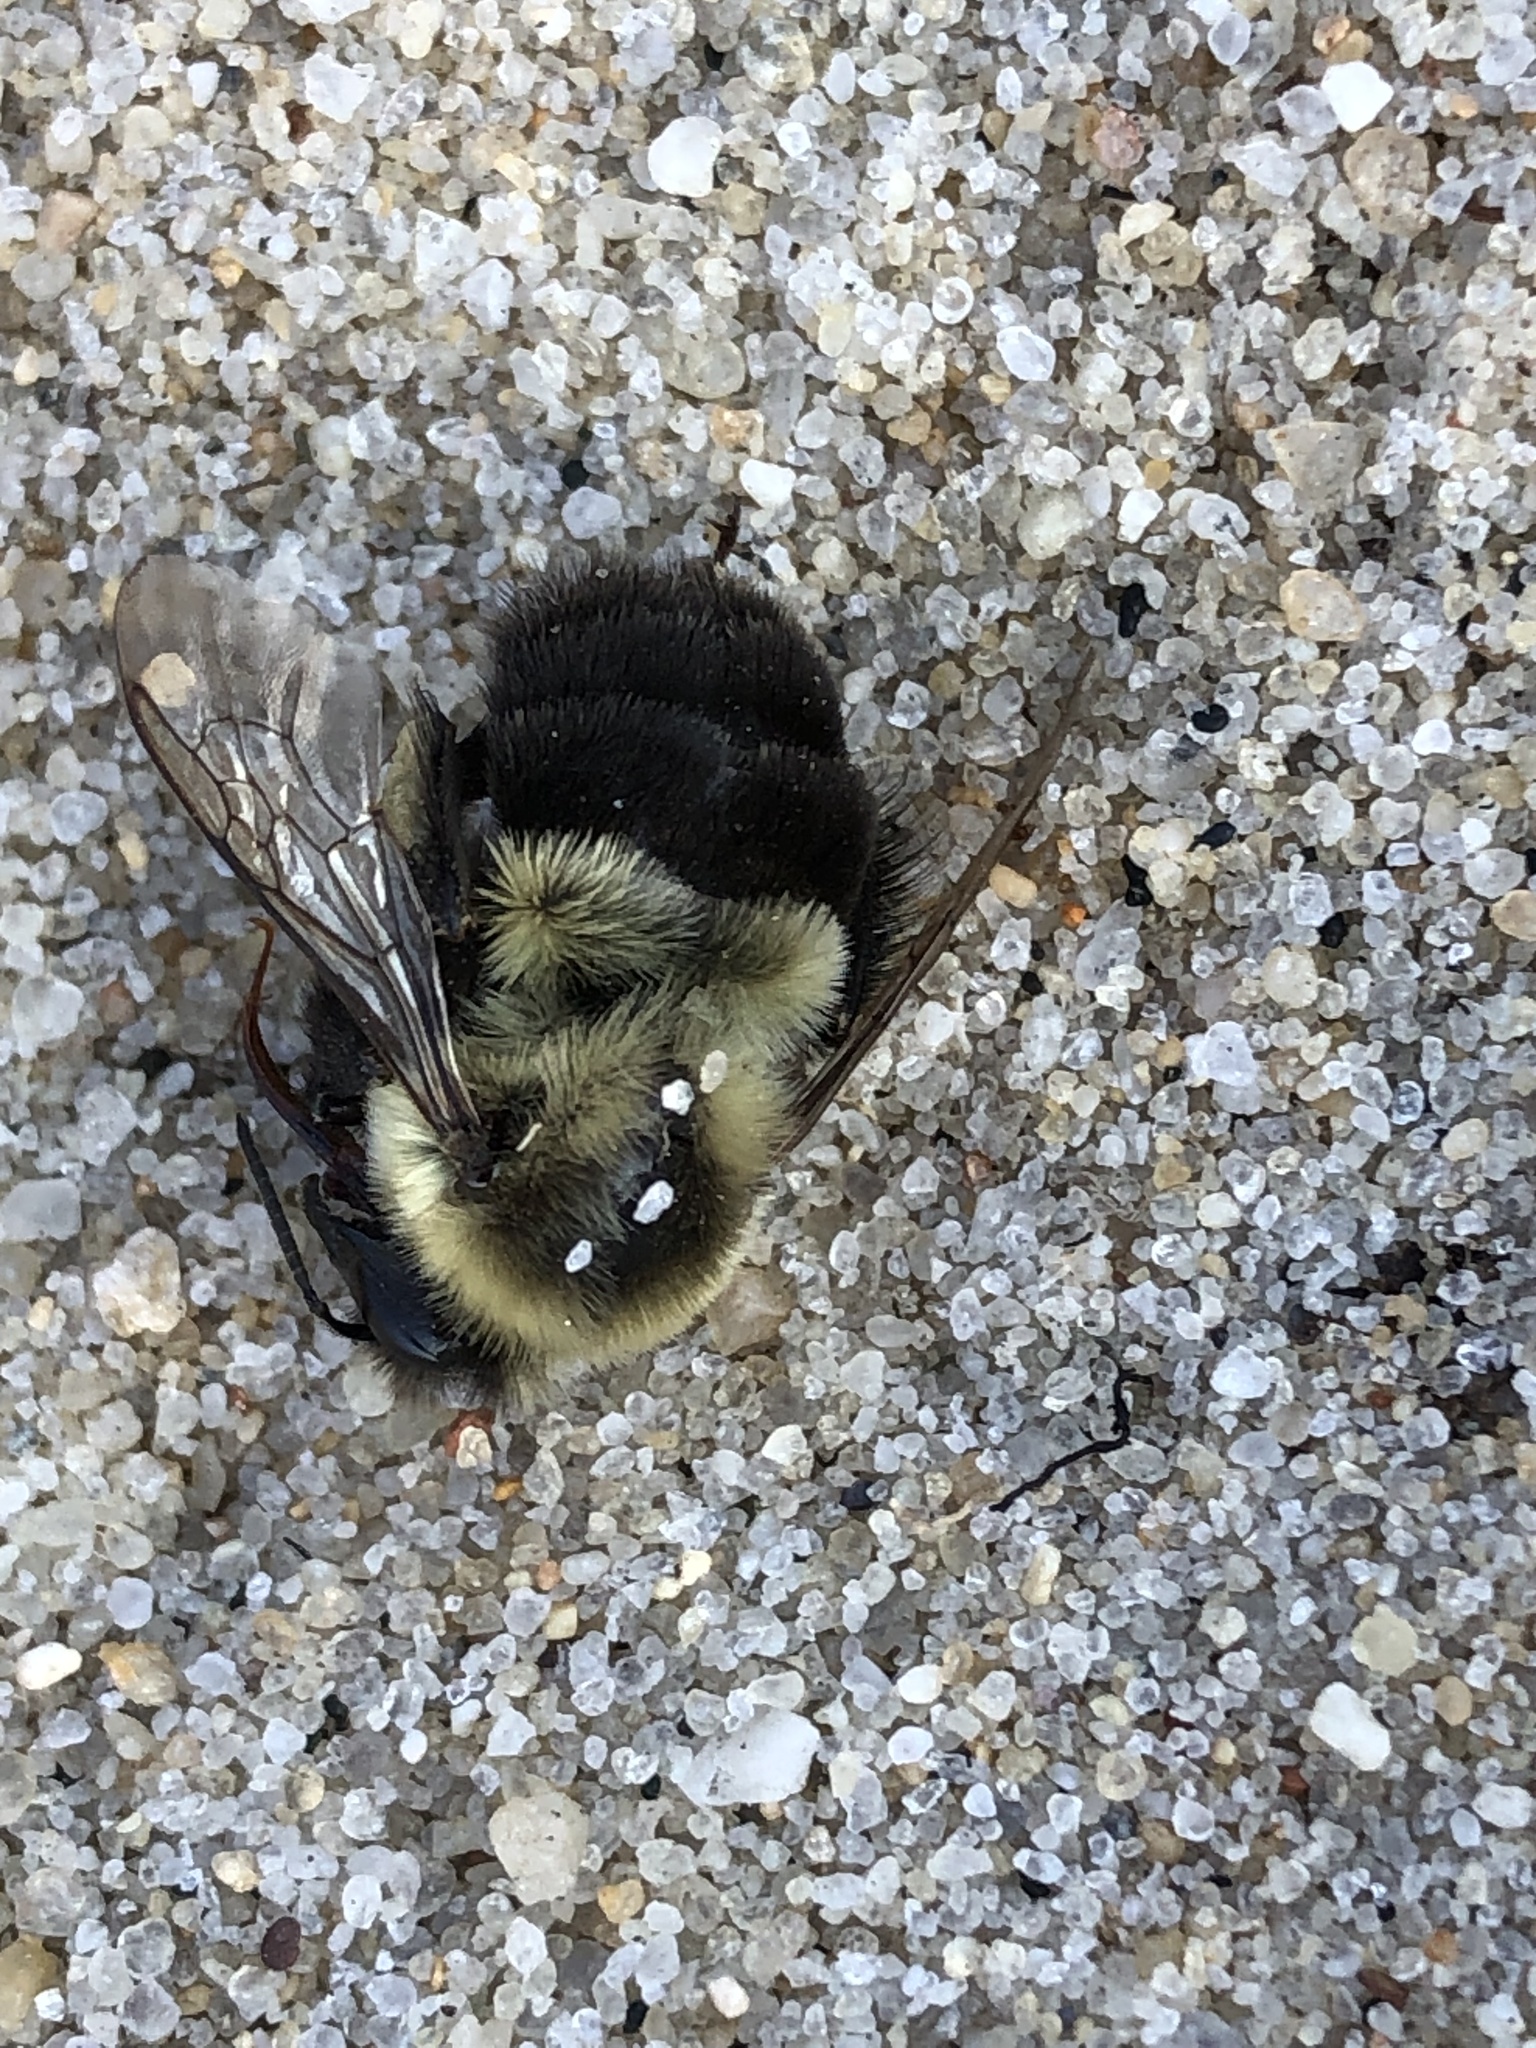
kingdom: Animalia
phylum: Arthropoda
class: Insecta
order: Hymenoptera
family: Apidae
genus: Bombus
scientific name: Bombus impatiens
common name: Common eastern bumble bee
